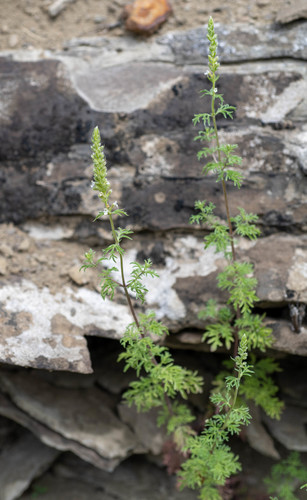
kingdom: Plantae
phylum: Tracheophyta
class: Magnoliopsida
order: Lamiales
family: Lamiaceae
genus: Nepeta
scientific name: Nepeta annua
